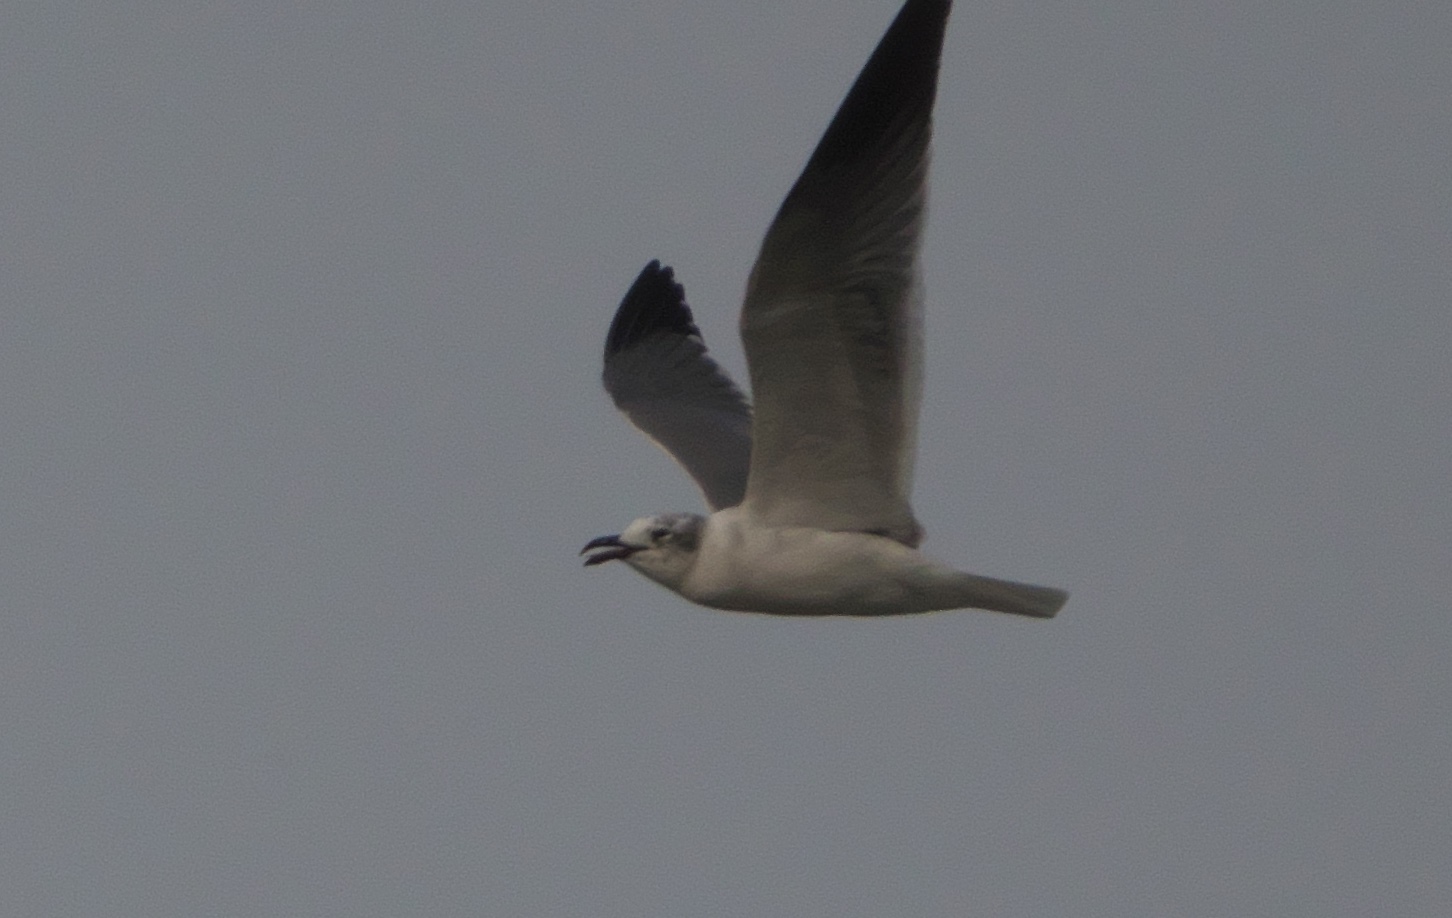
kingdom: Animalia
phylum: Chordata
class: Aves
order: Charadriiformes
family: Laridae
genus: Leucophaeus
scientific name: Leucophaeus atricilla
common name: Laughing gull
